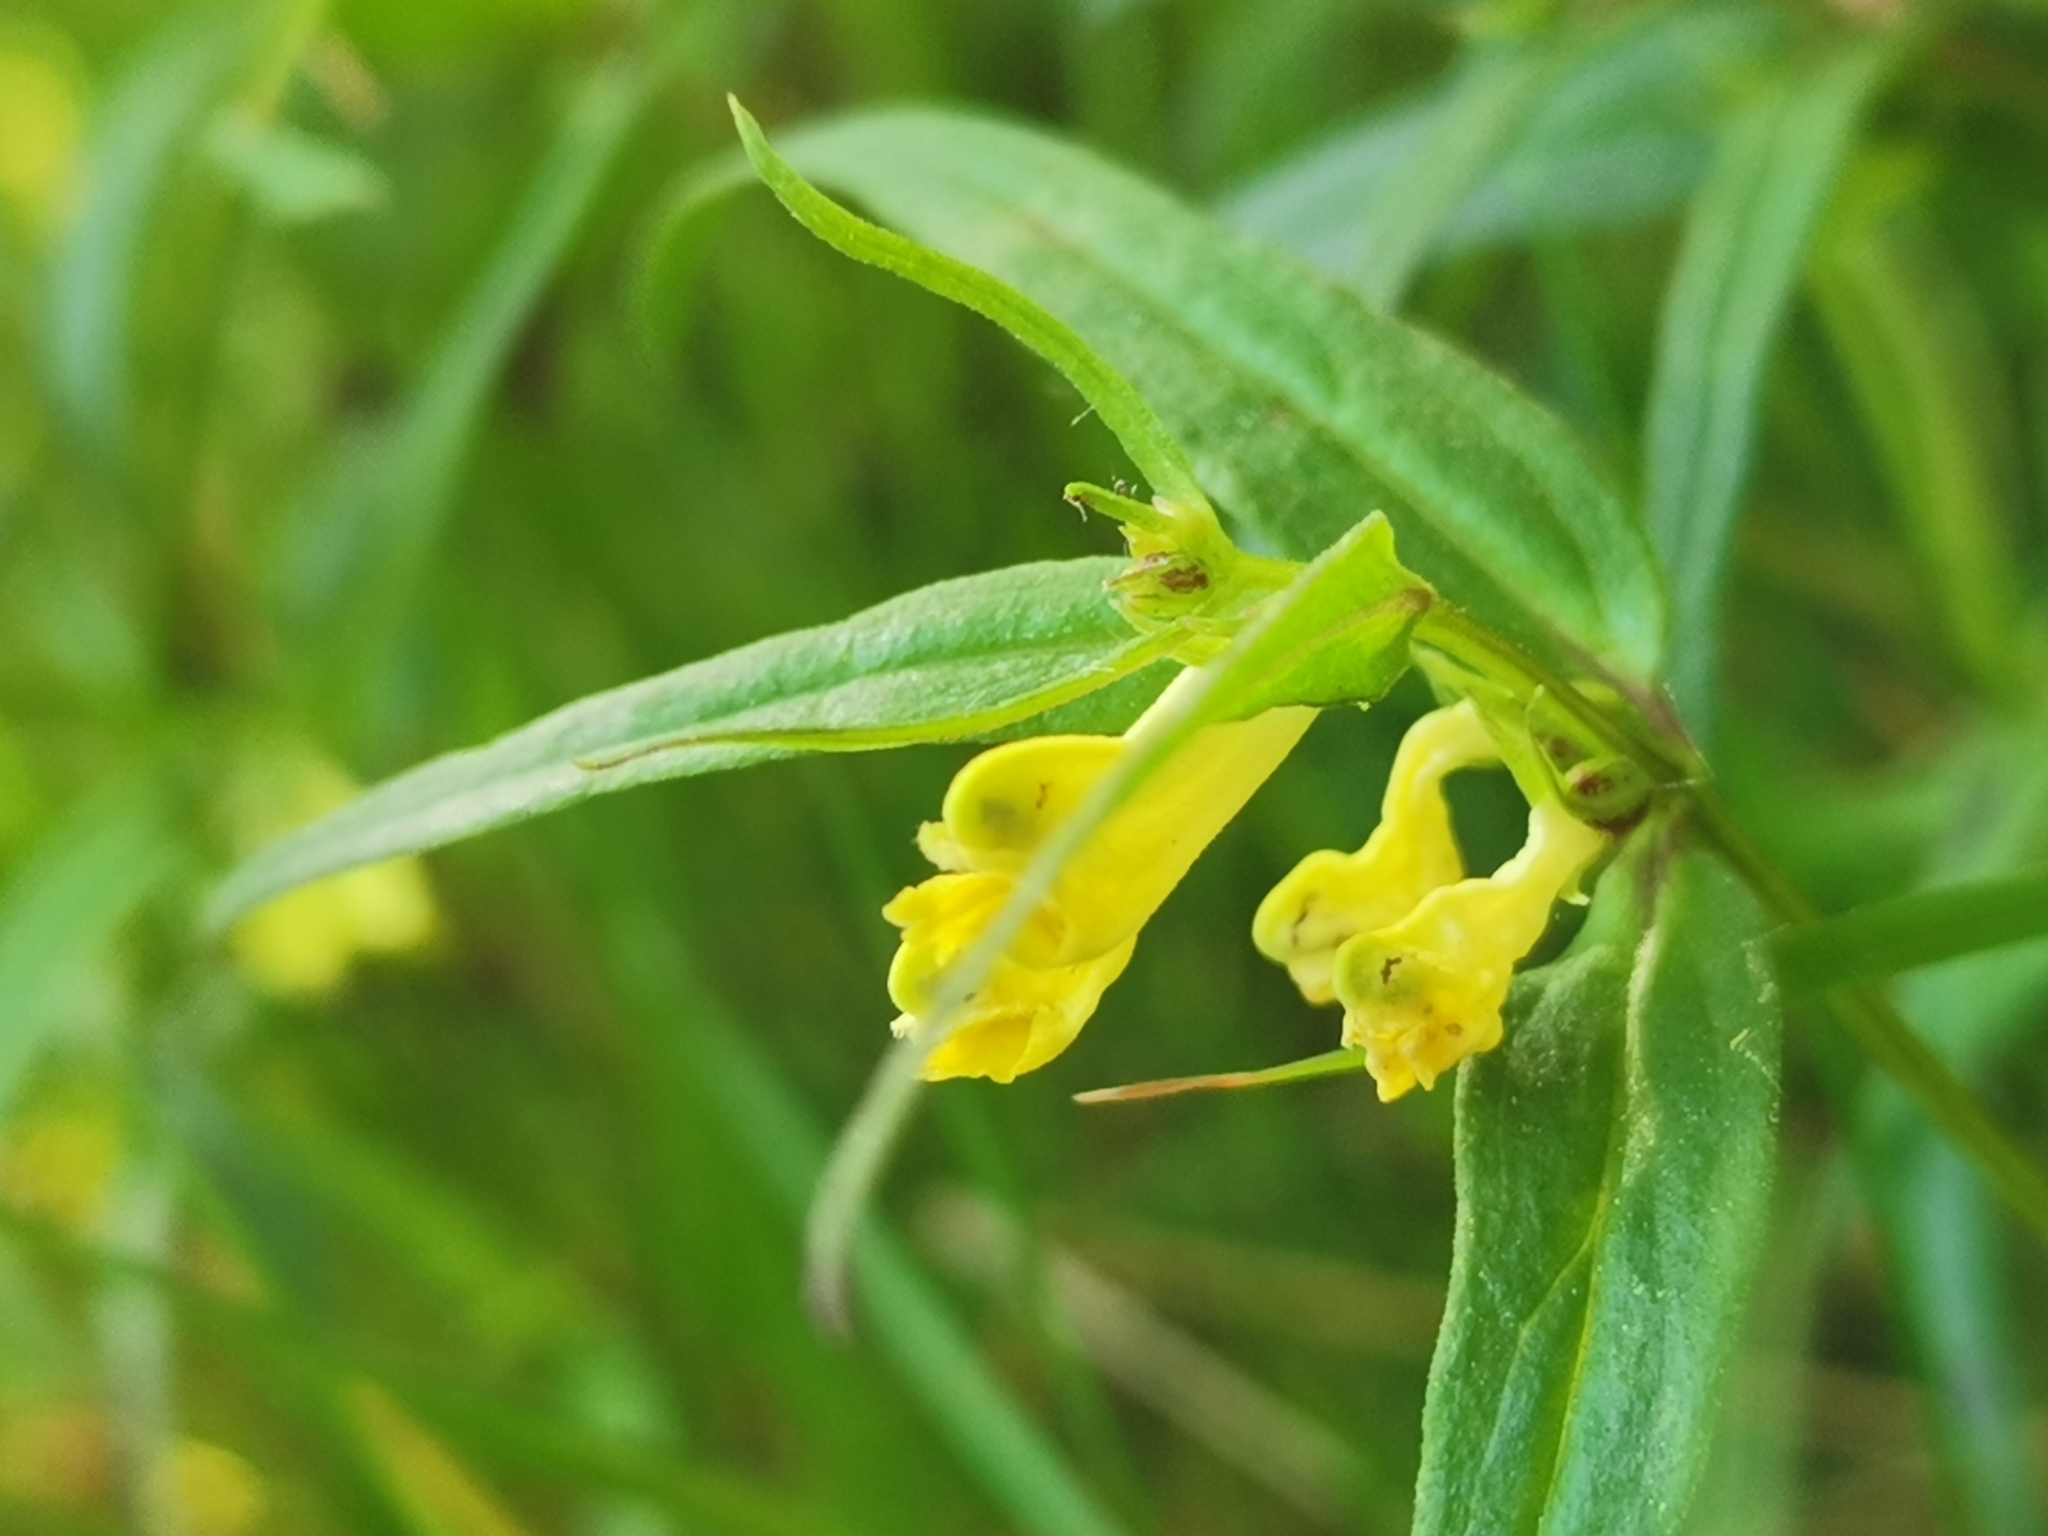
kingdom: Plantae
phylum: Tracheophyta
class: Magnoliopsida
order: Lamiales
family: Orobanchaceae
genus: Melampyrum
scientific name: Melampyrum pratense
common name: Common cow-wheat
